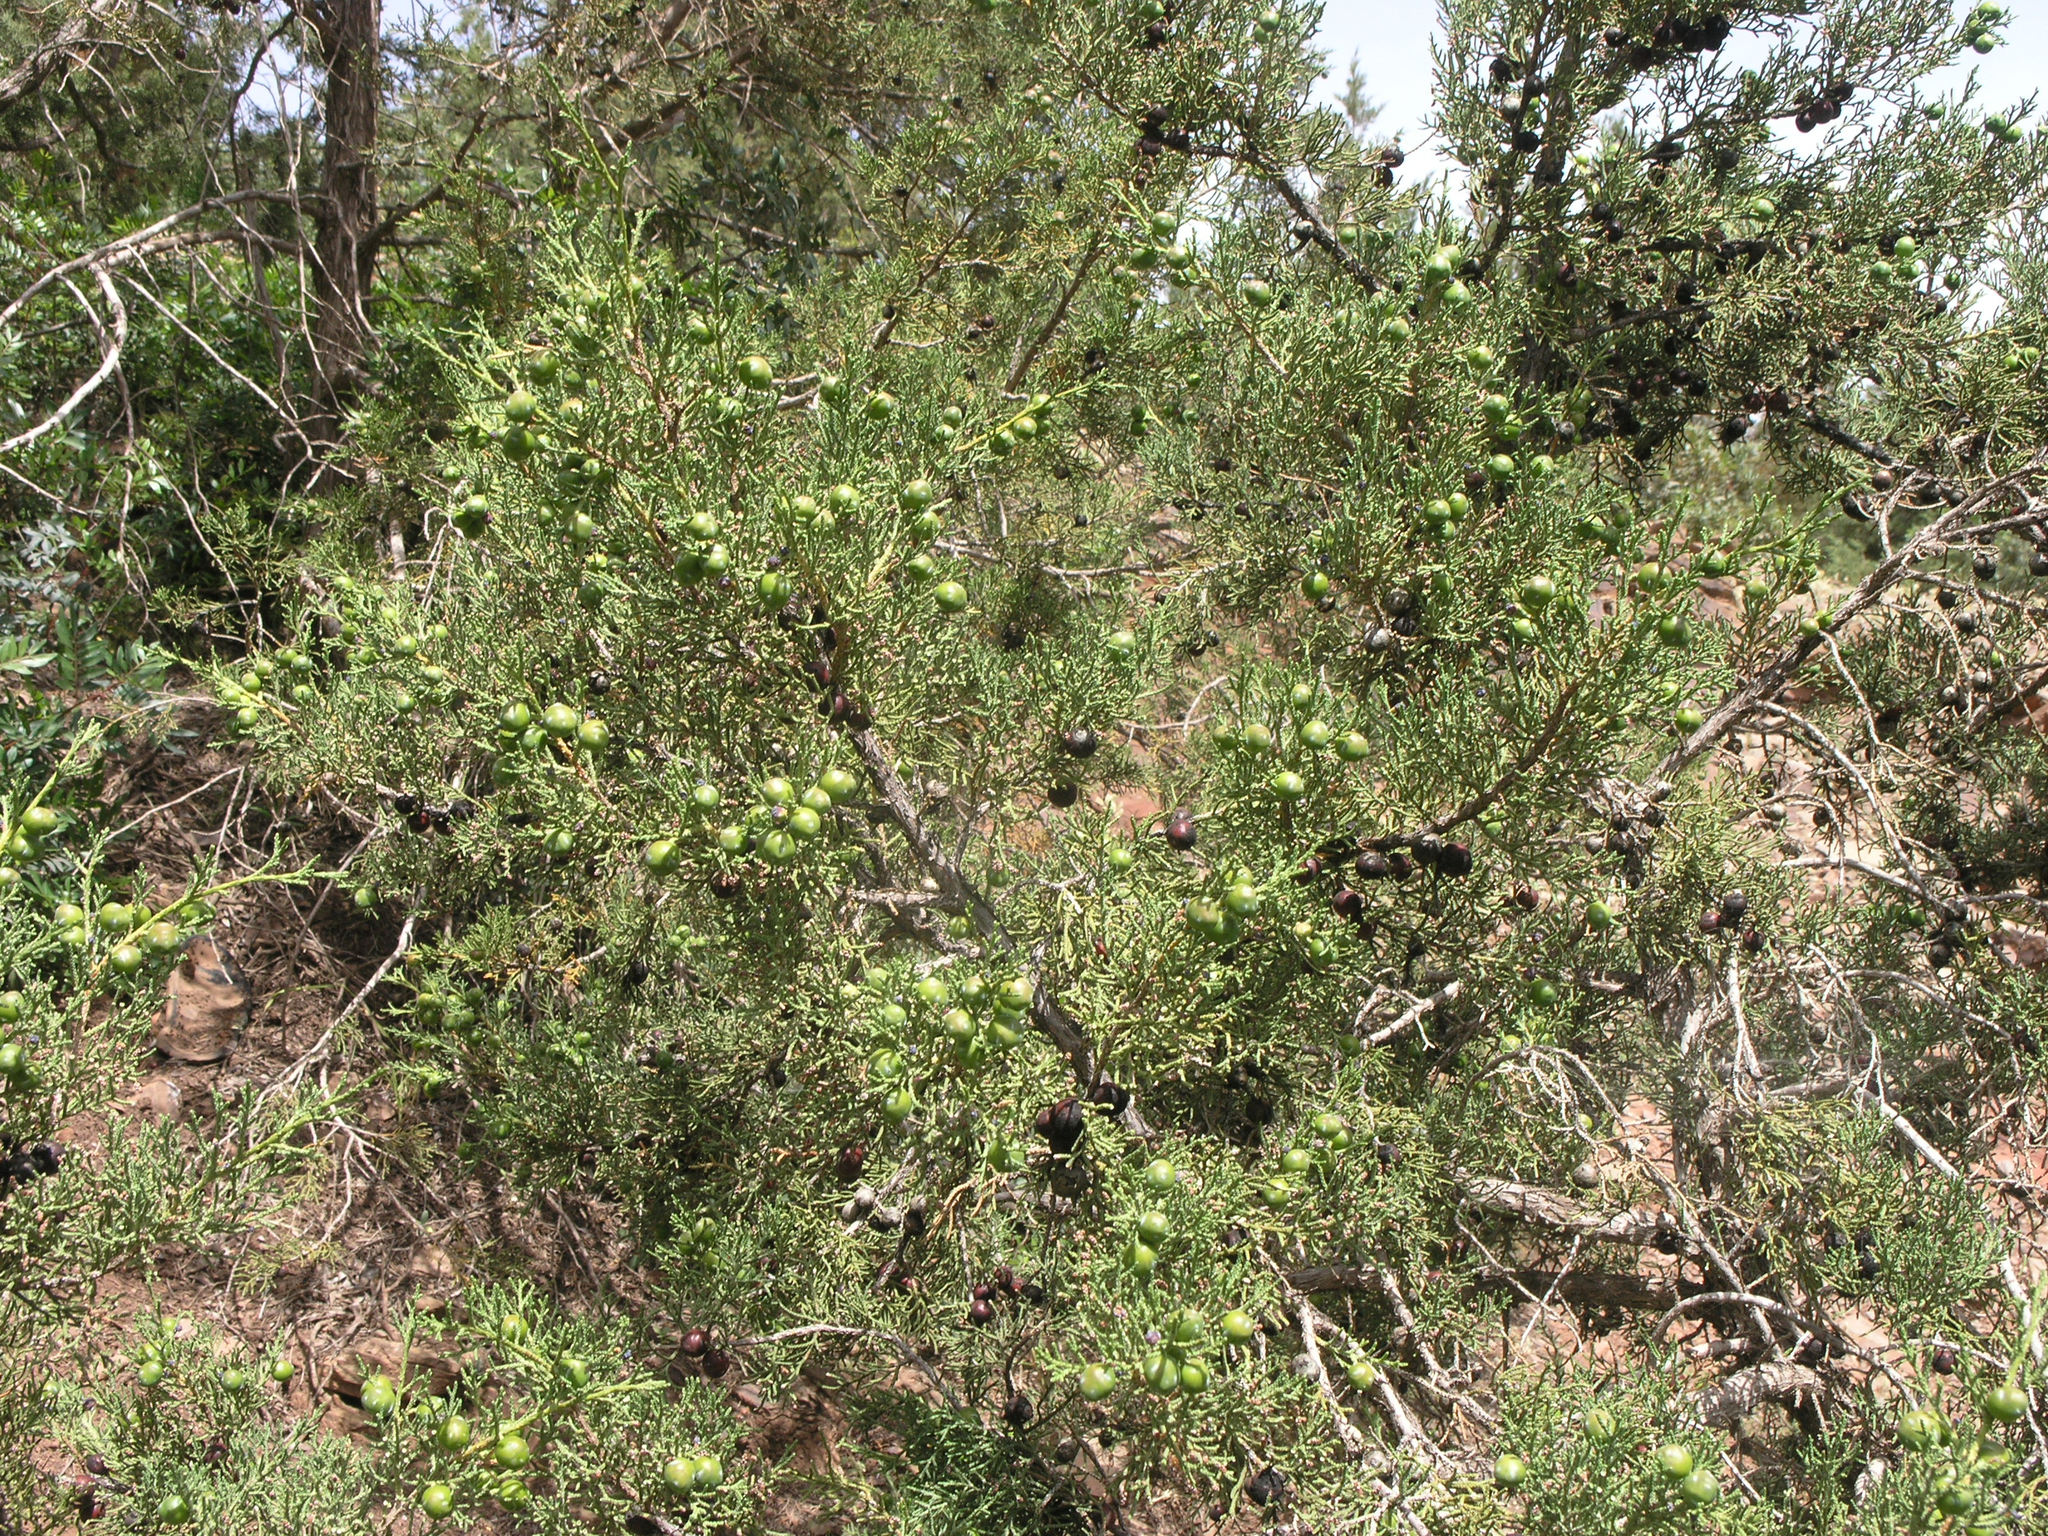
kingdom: Plantae
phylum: Tracheophyta
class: Pinopsida
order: Pinales
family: Cupressaceae
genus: Juniperus
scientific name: Juniperus phoenicea
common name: Phoenician juniper
